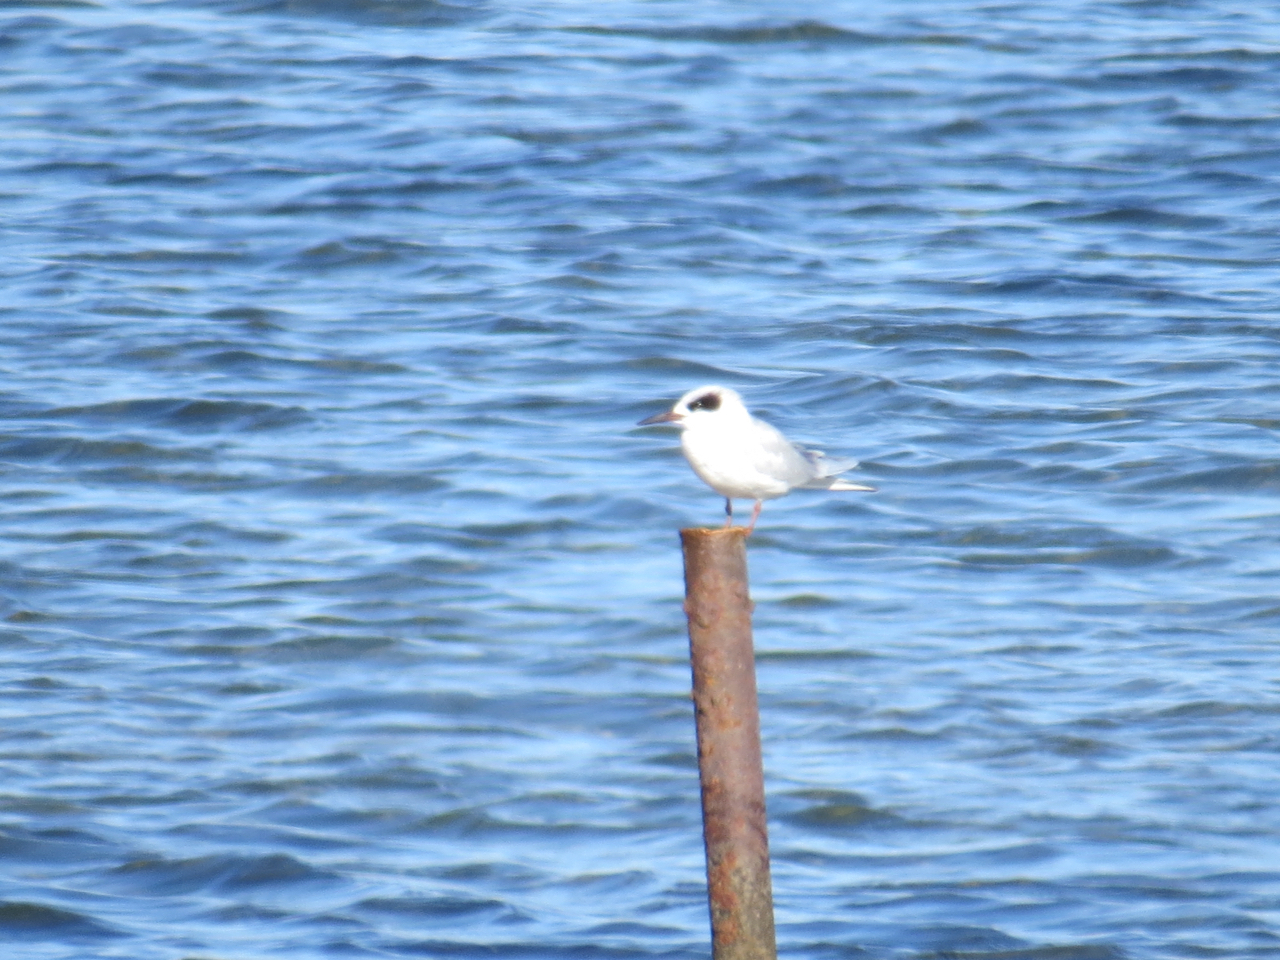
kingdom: Animalia
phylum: Chordata
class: Aves
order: Charadriiformes
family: Laridae
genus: Sterna
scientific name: Sterna forsteri
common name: Forster's tern
